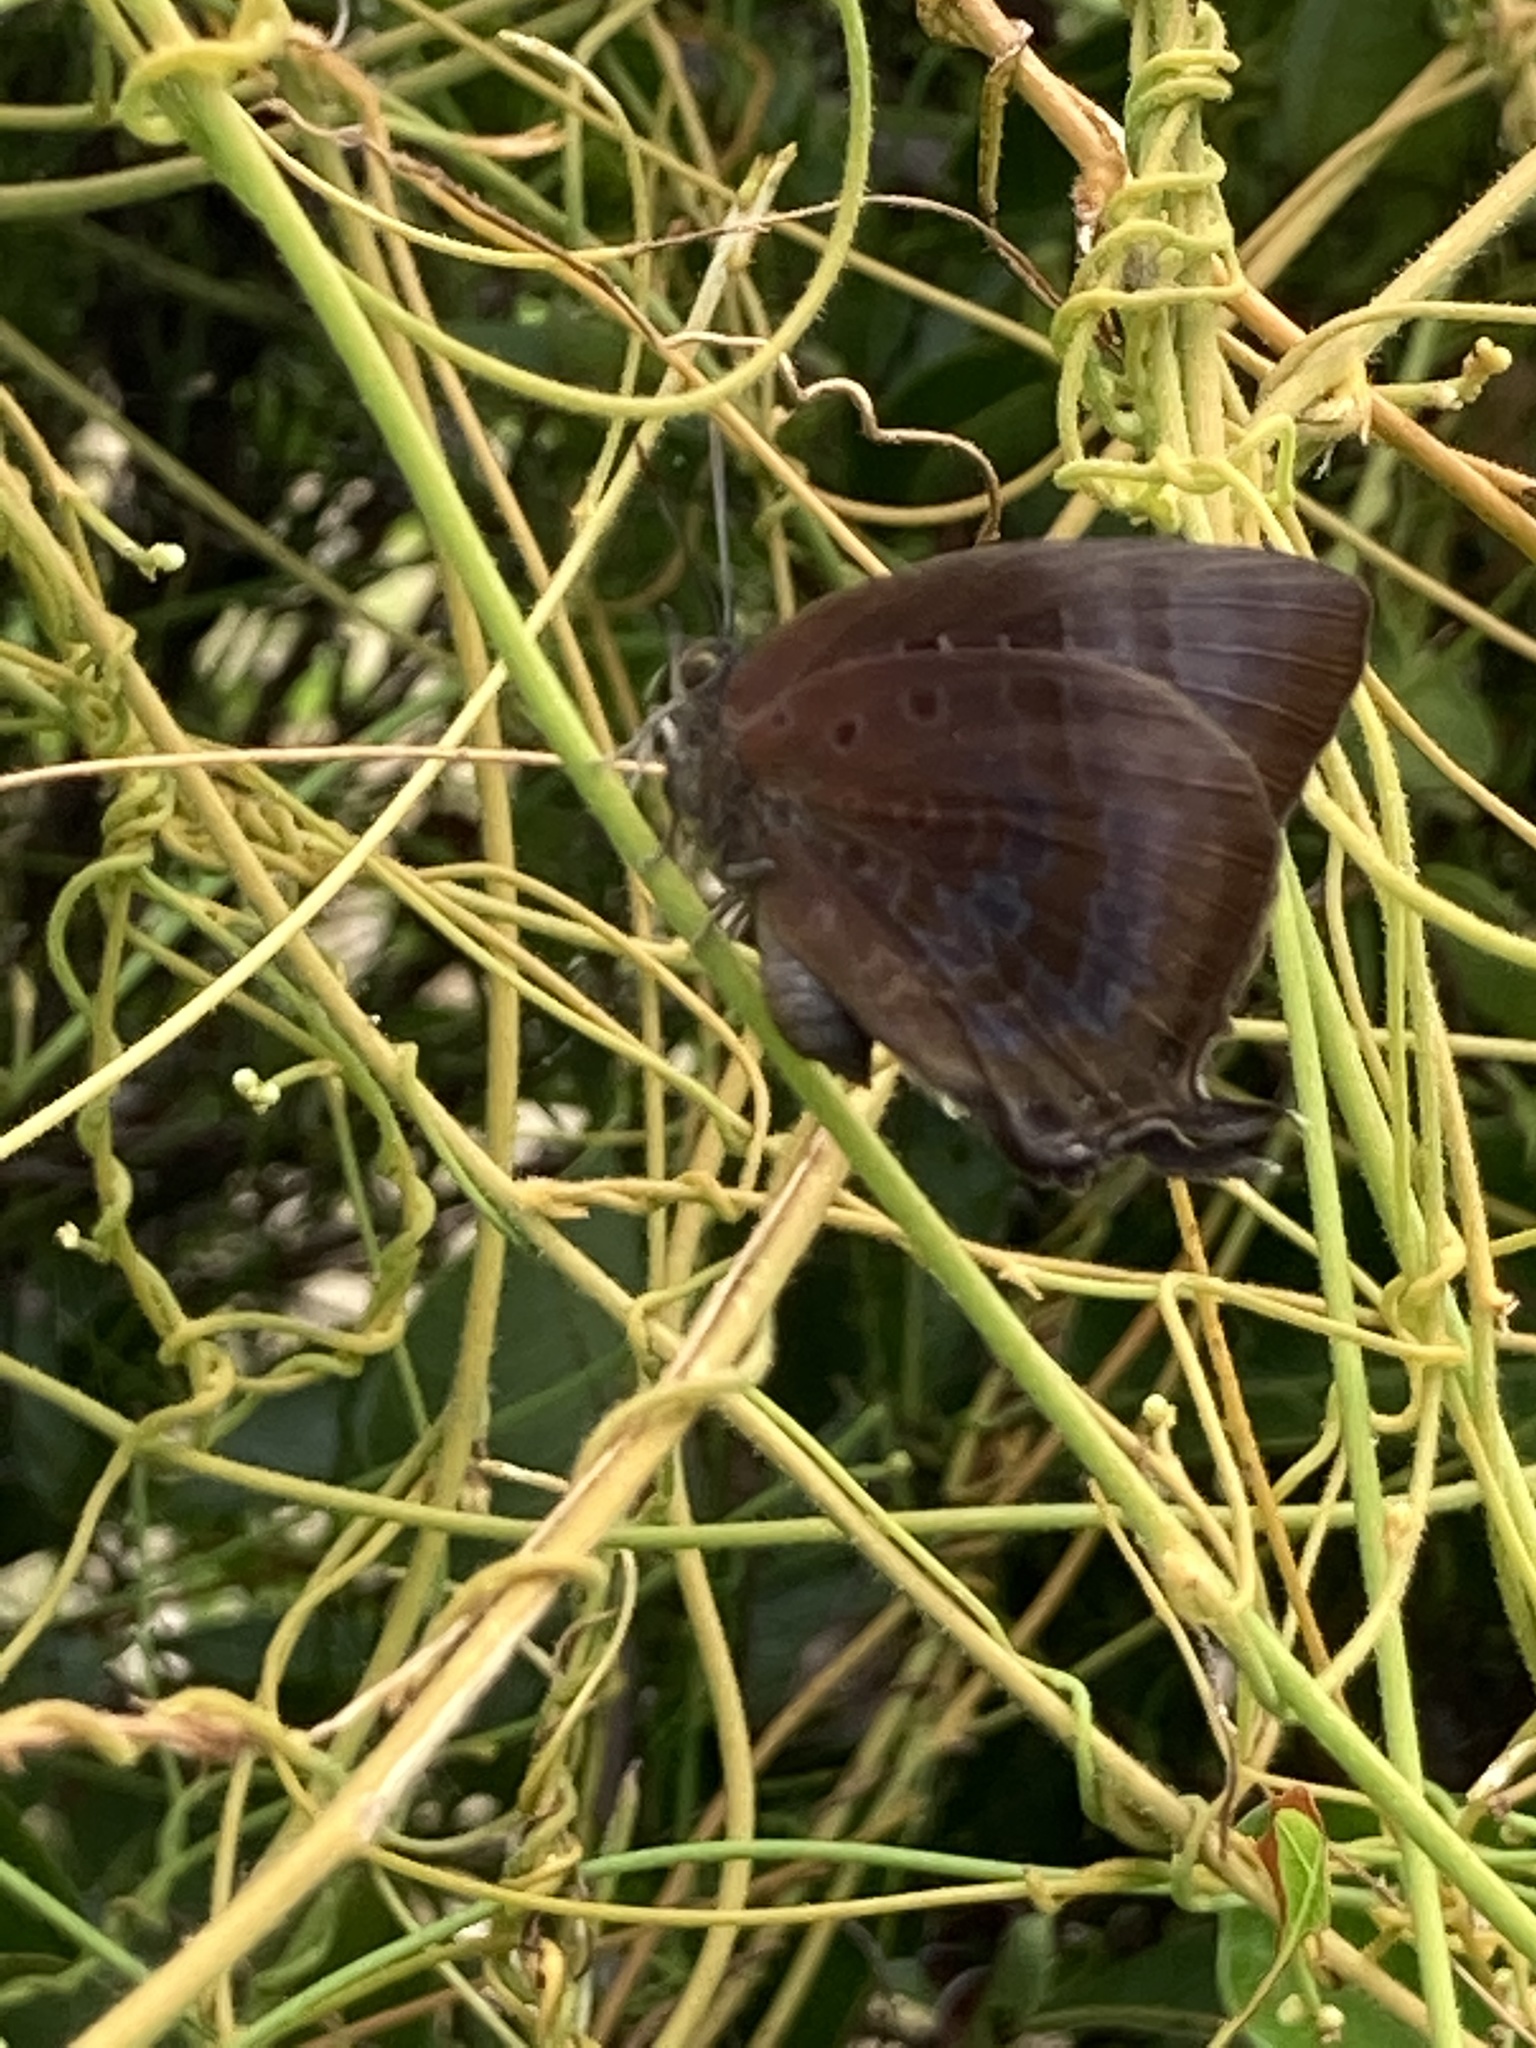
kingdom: Animalia
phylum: Arthropoda
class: Insecta
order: Lepidoptera
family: Lycaenidae
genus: Arhopala
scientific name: Arhopala madytus
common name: Bright oak-blue
